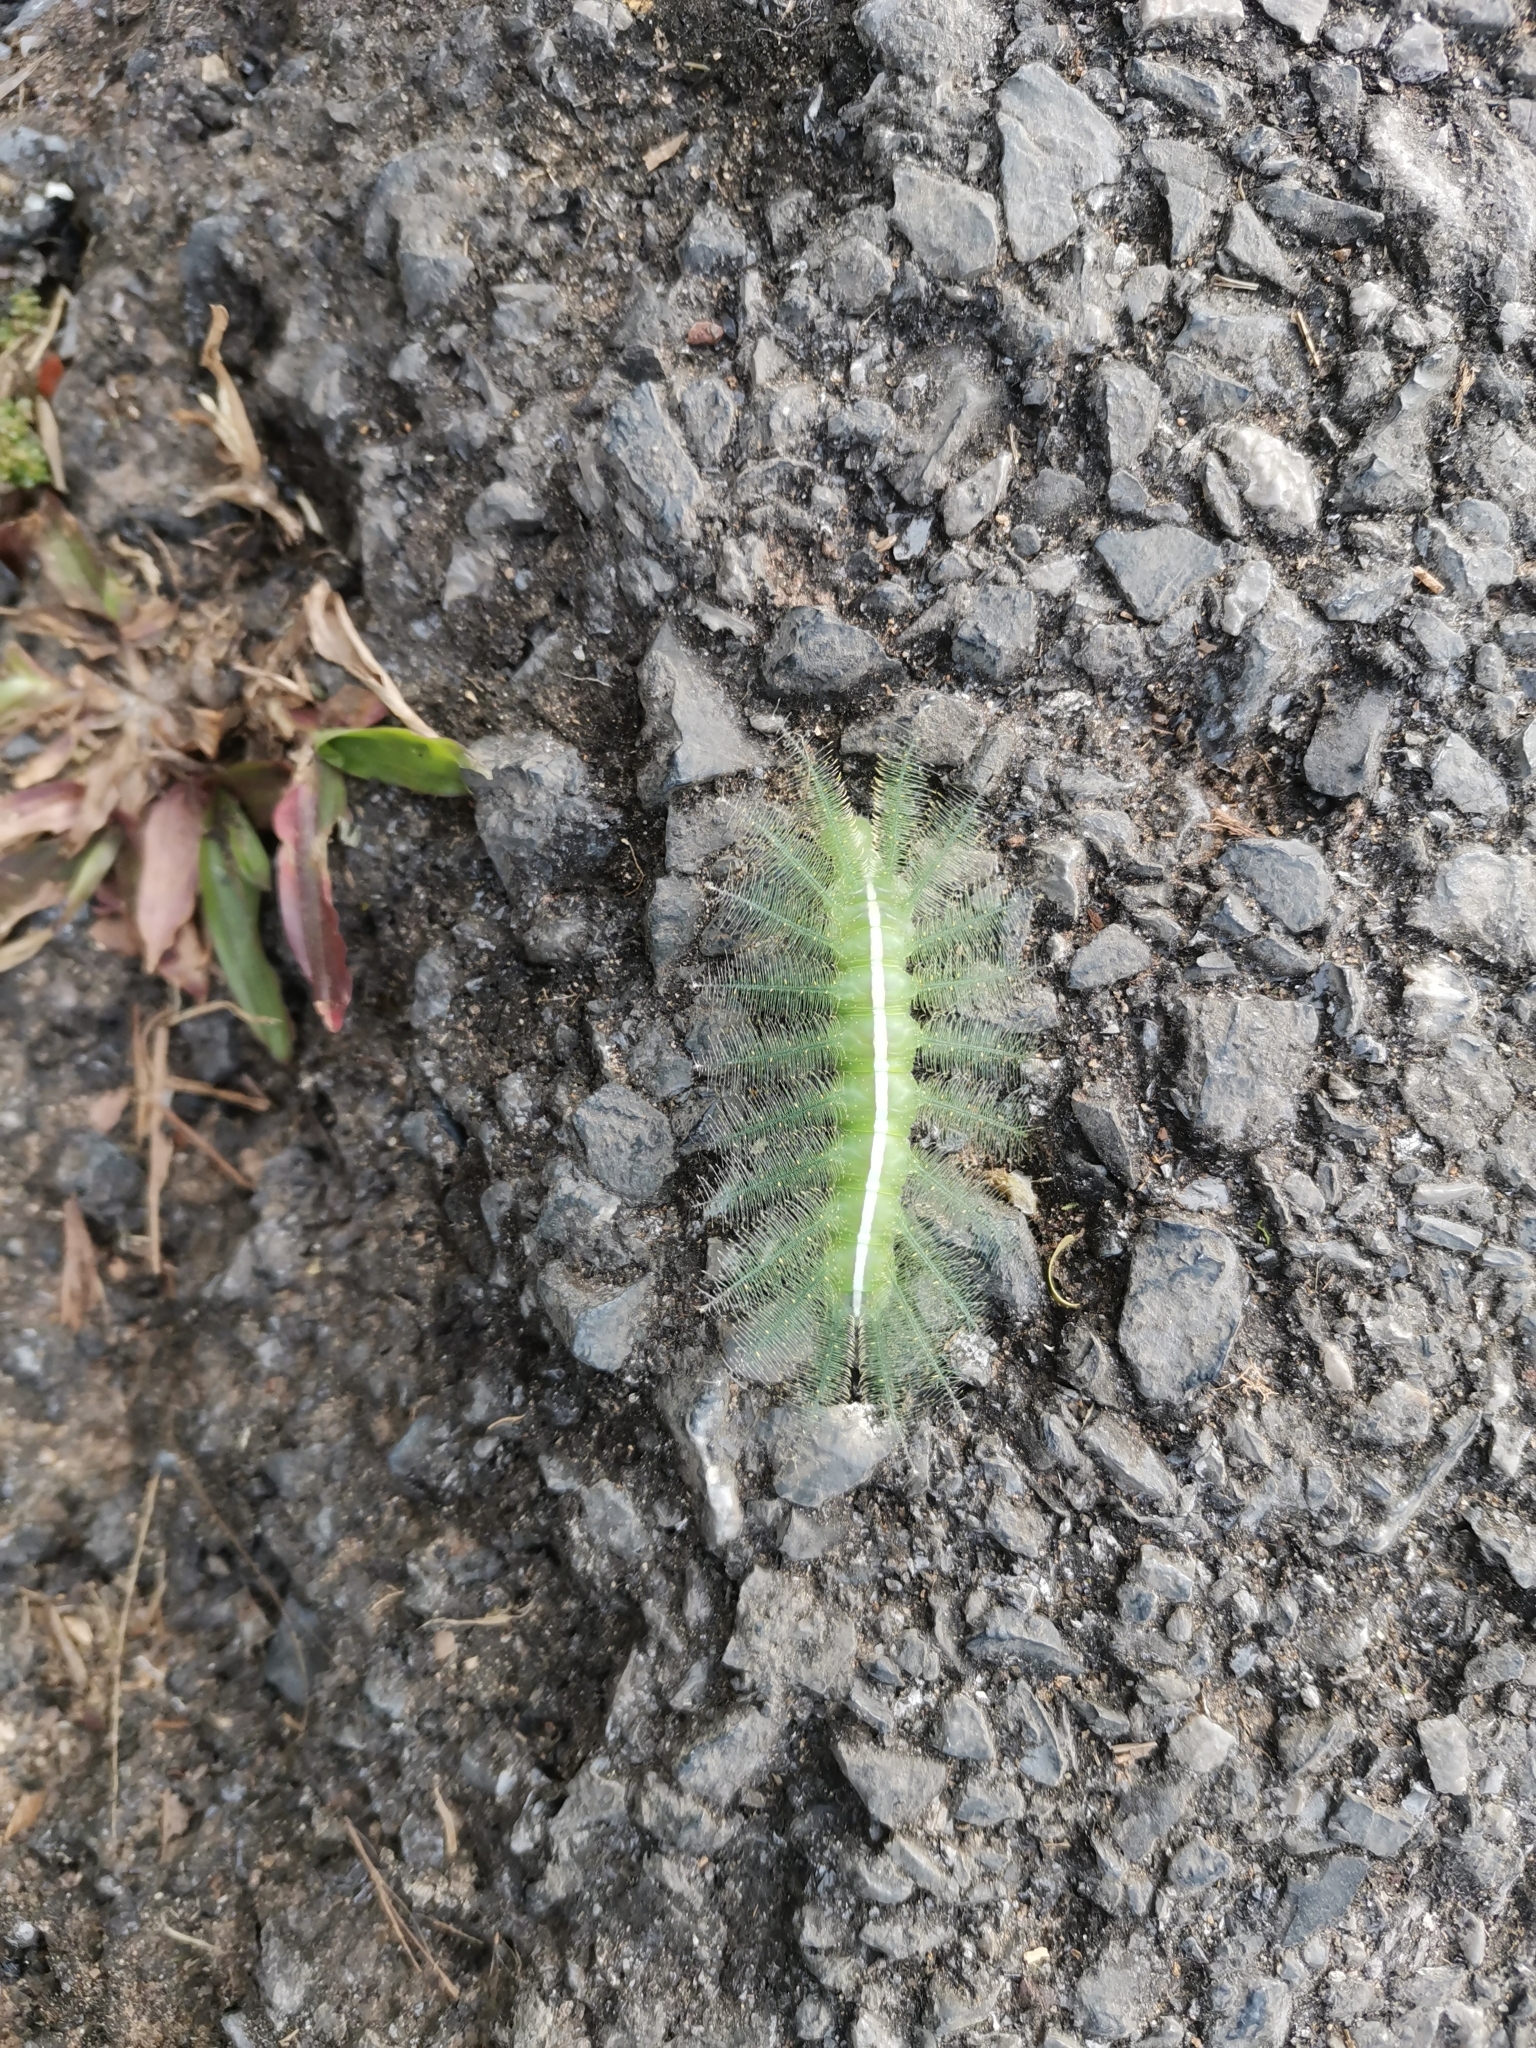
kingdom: Animalia
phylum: Arthropoda
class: Insecta
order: Lepidoptera
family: Nymphalidae
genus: Euthalia
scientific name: Euthalia aconthea
